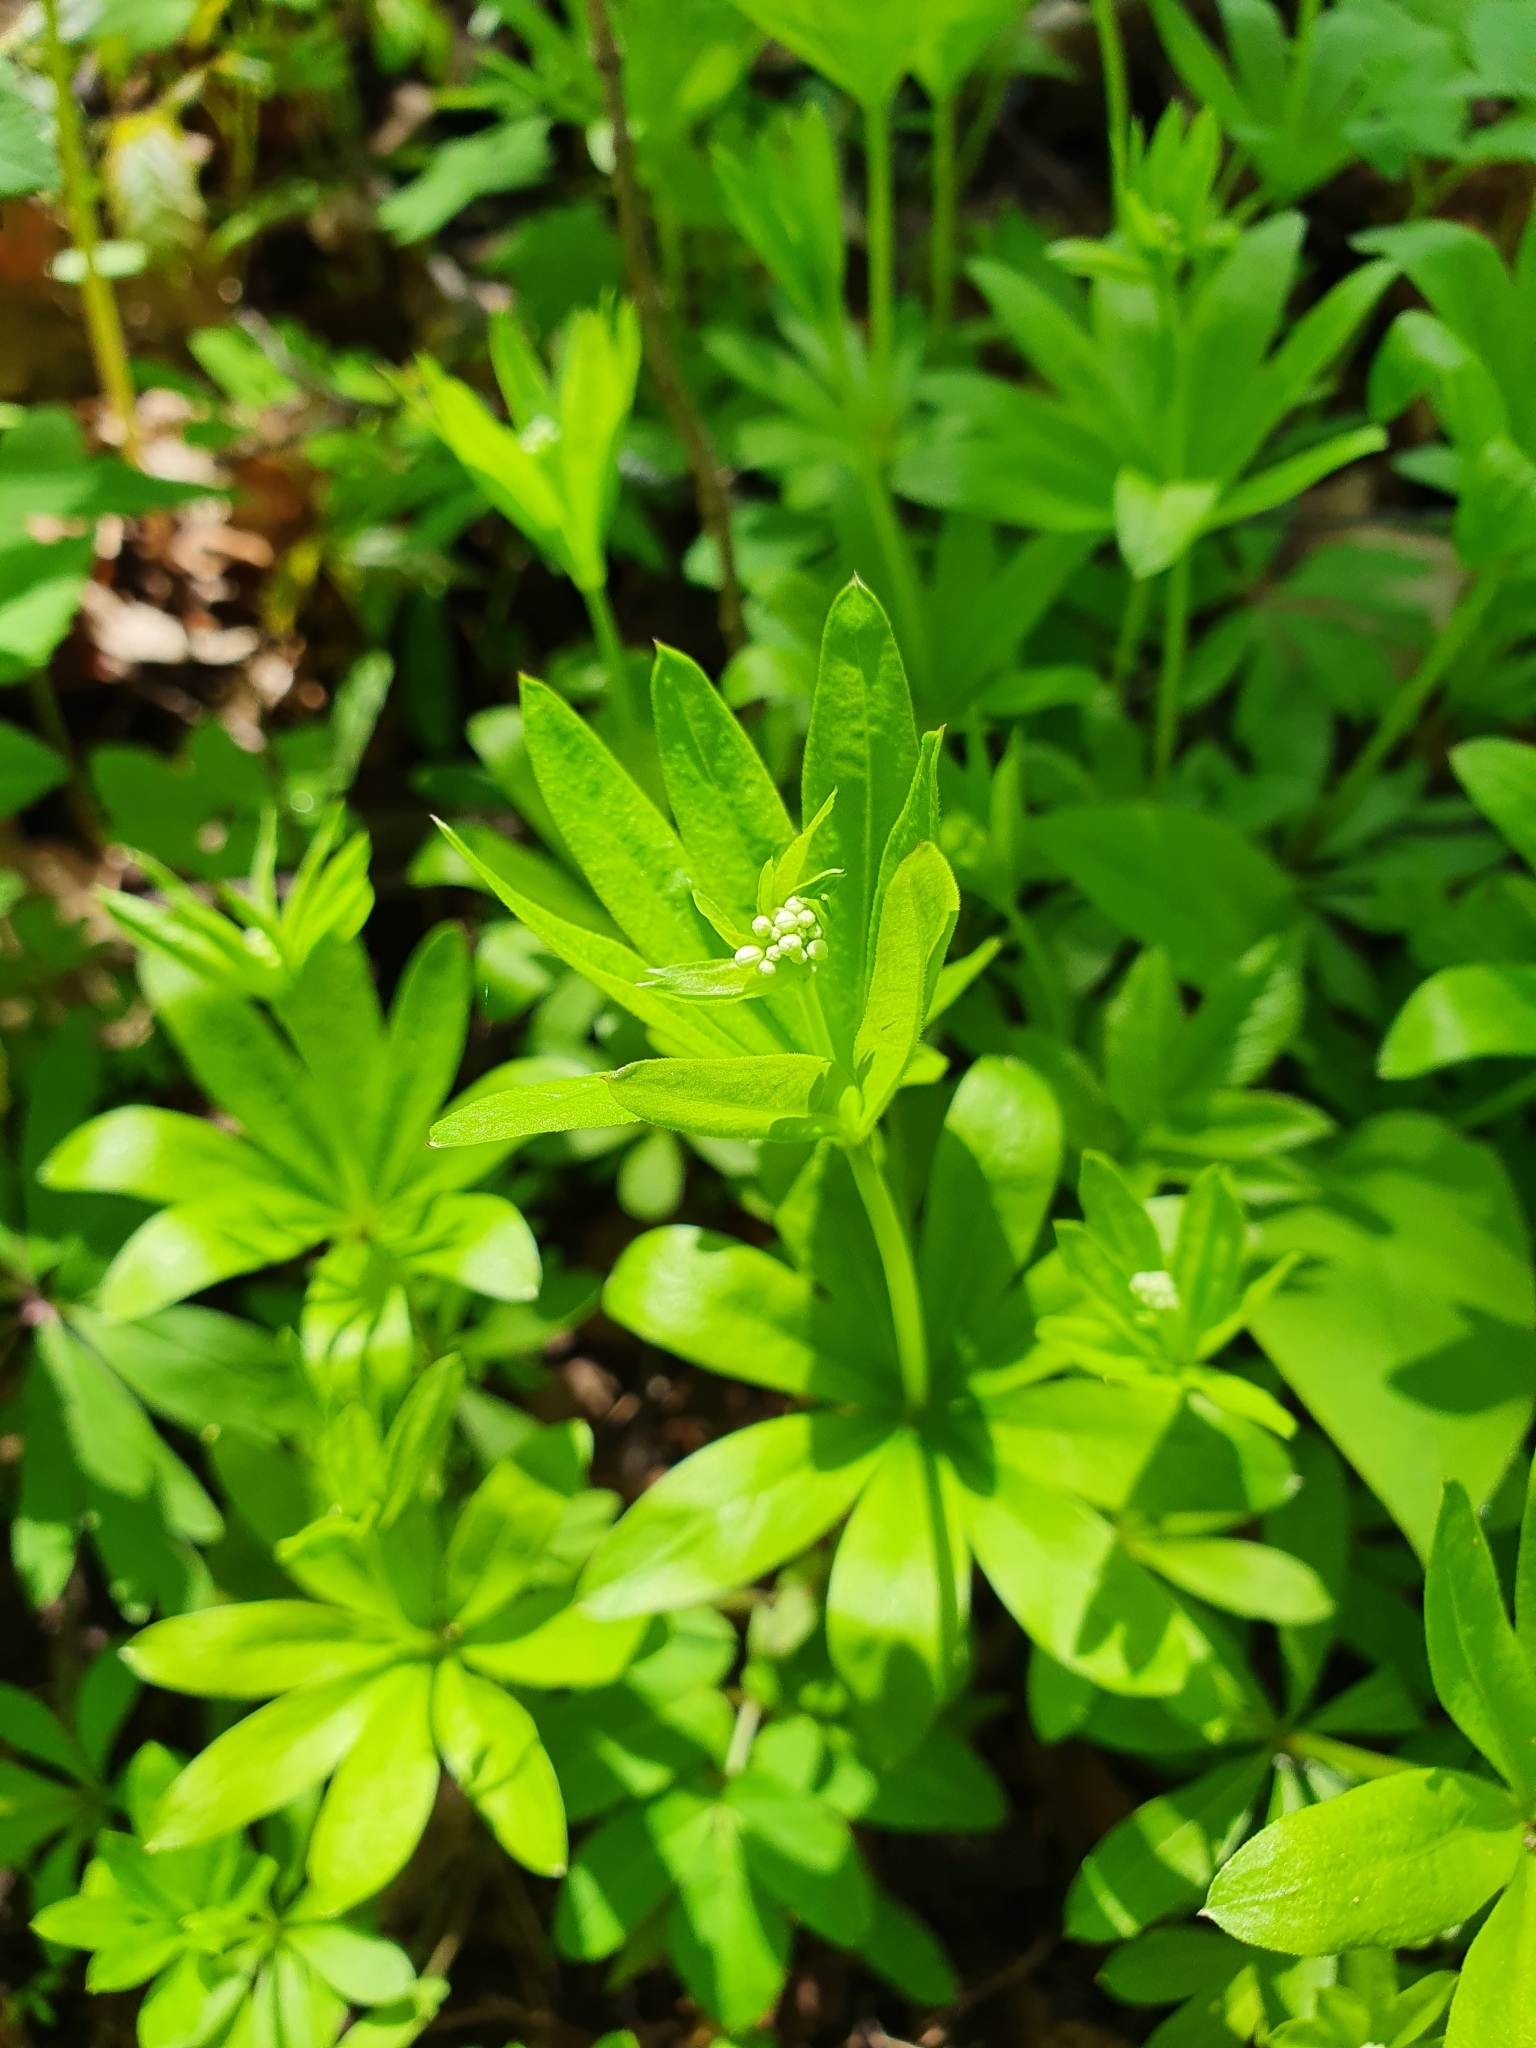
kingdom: Plantae
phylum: Tracheophyta
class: Magnoliopsida
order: Gentianales
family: Rubiaceae
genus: Galium
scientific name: Galium odoratum
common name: Sweet woodruff
